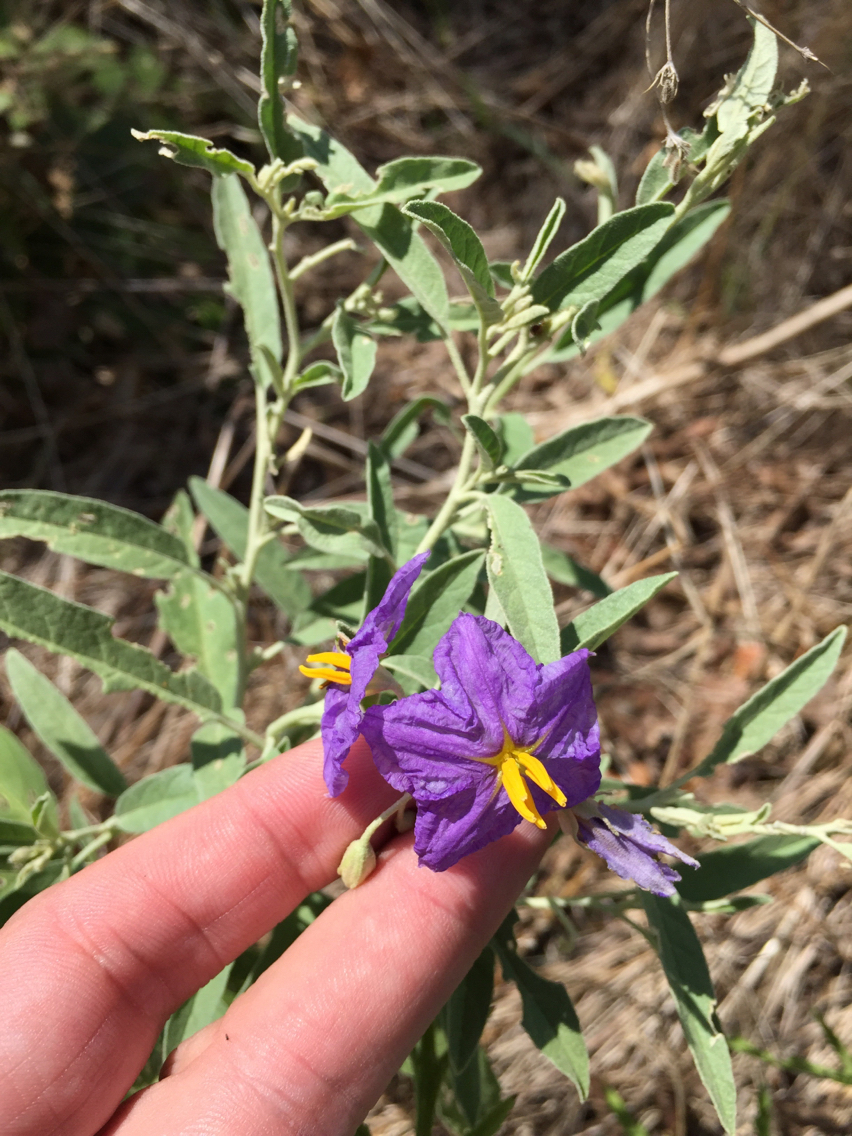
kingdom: Plantae
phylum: Tracheophyta
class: Magnoliopsida
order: Solanales
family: Solanaceae
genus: Solanum
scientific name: Solanum elaeagnifolium
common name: Silverleaf nightshade
